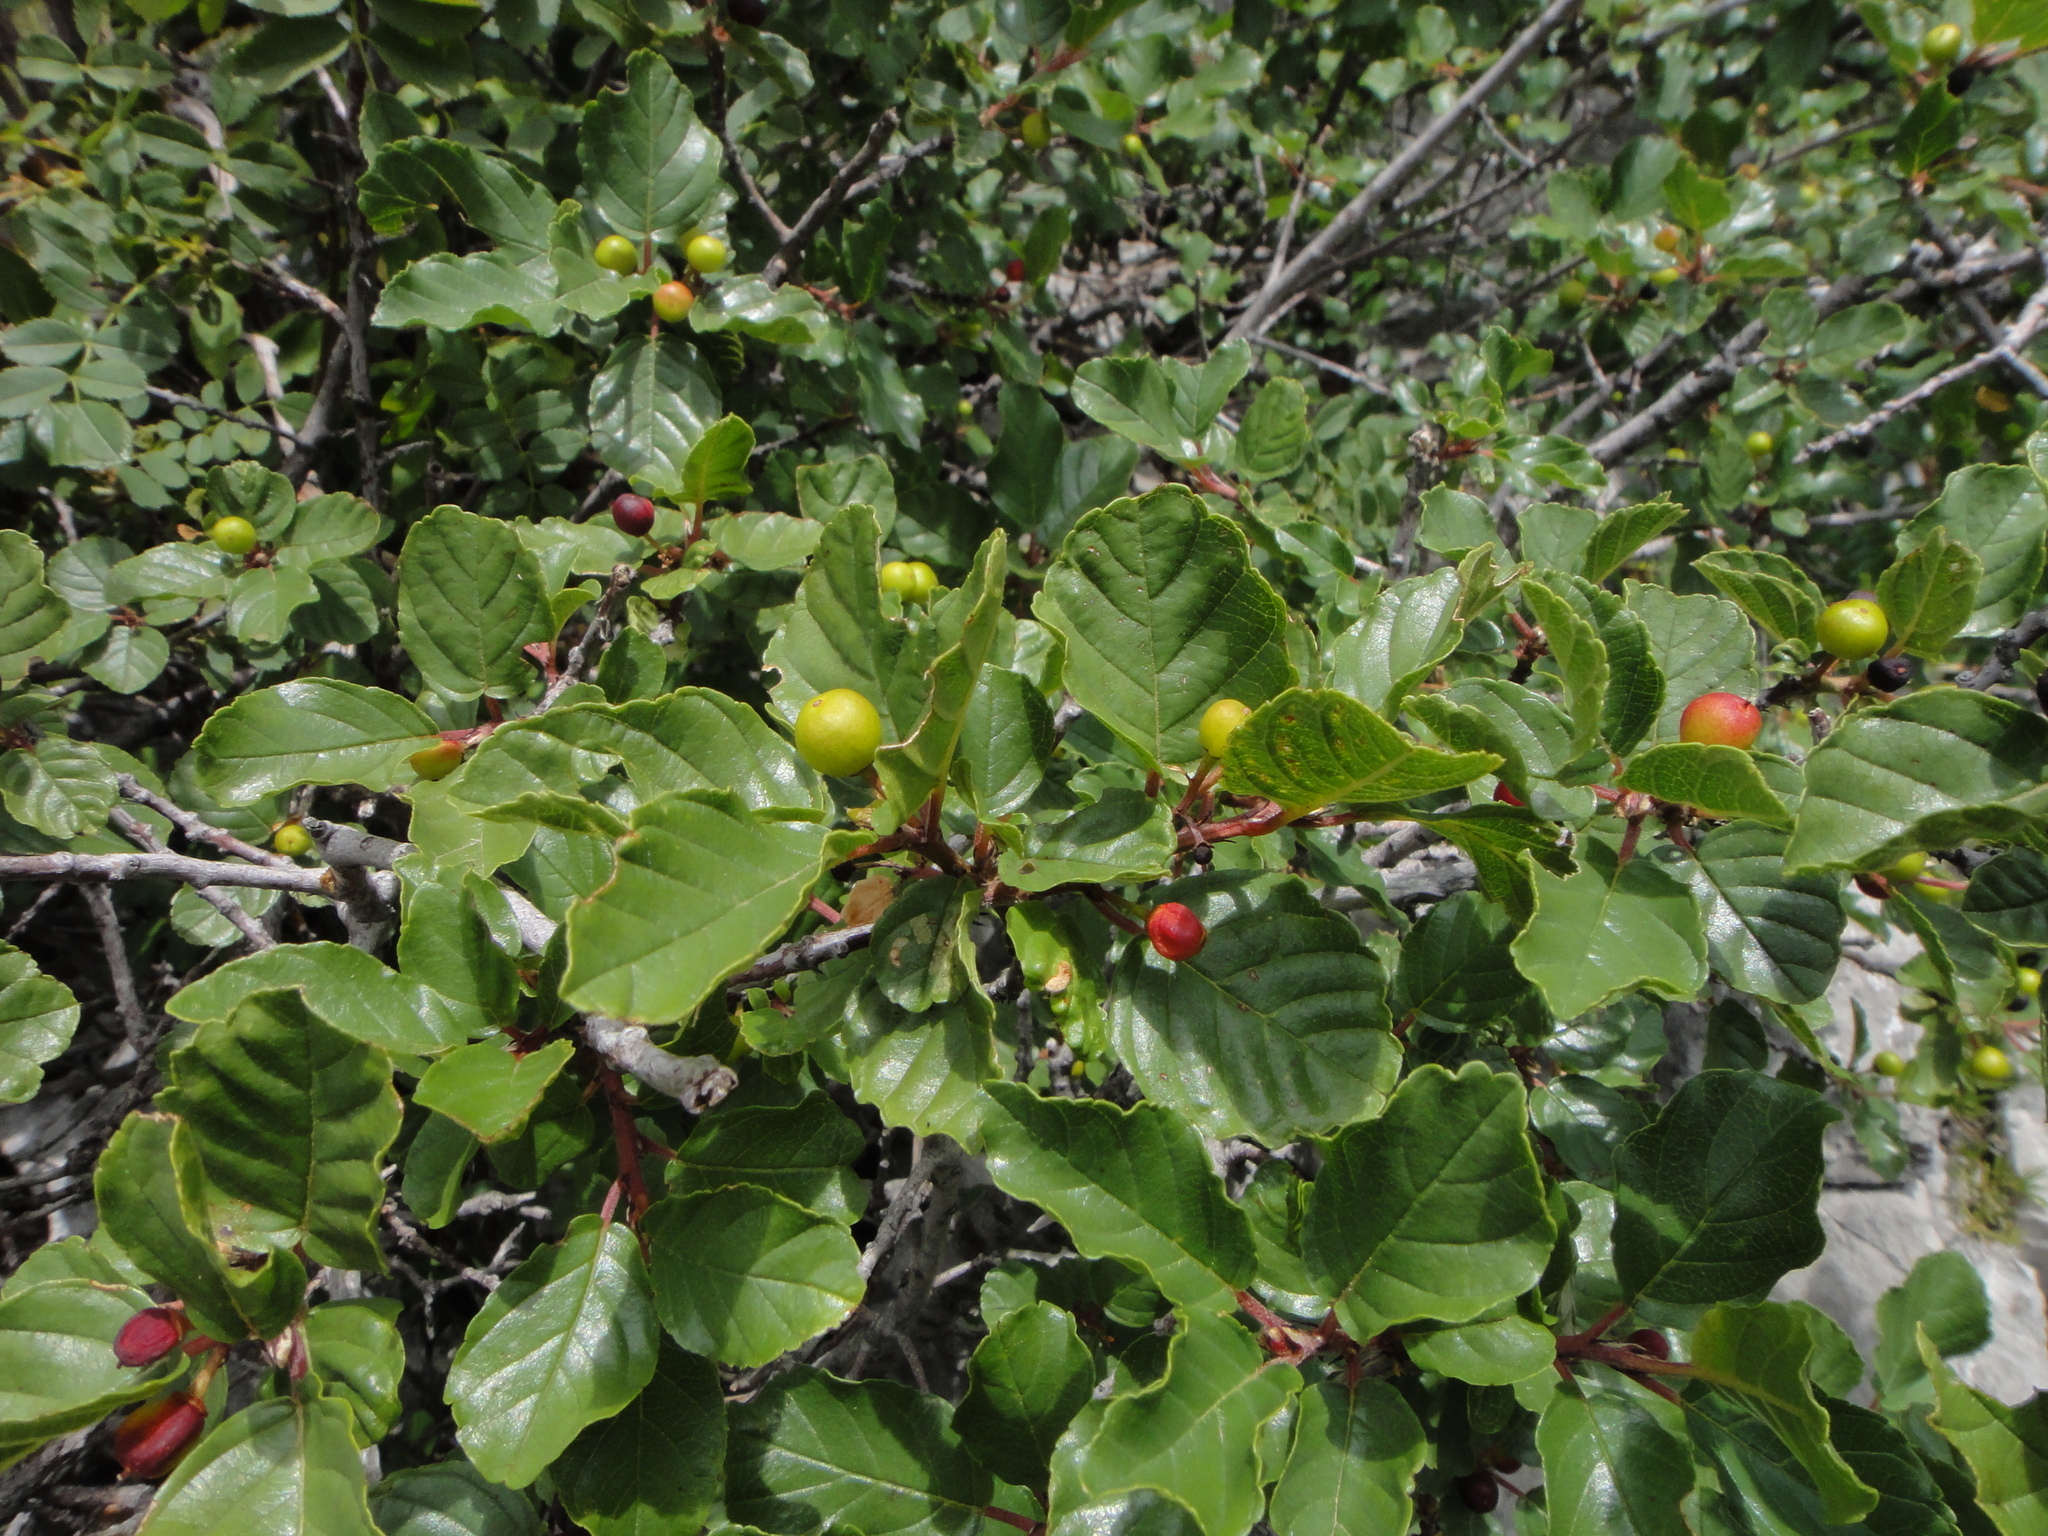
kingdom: Plantae
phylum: Tracheophyta
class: Magnoliopsida
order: Rosales
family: Rhamnaceae
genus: Frangula
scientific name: Frangula rupestris
